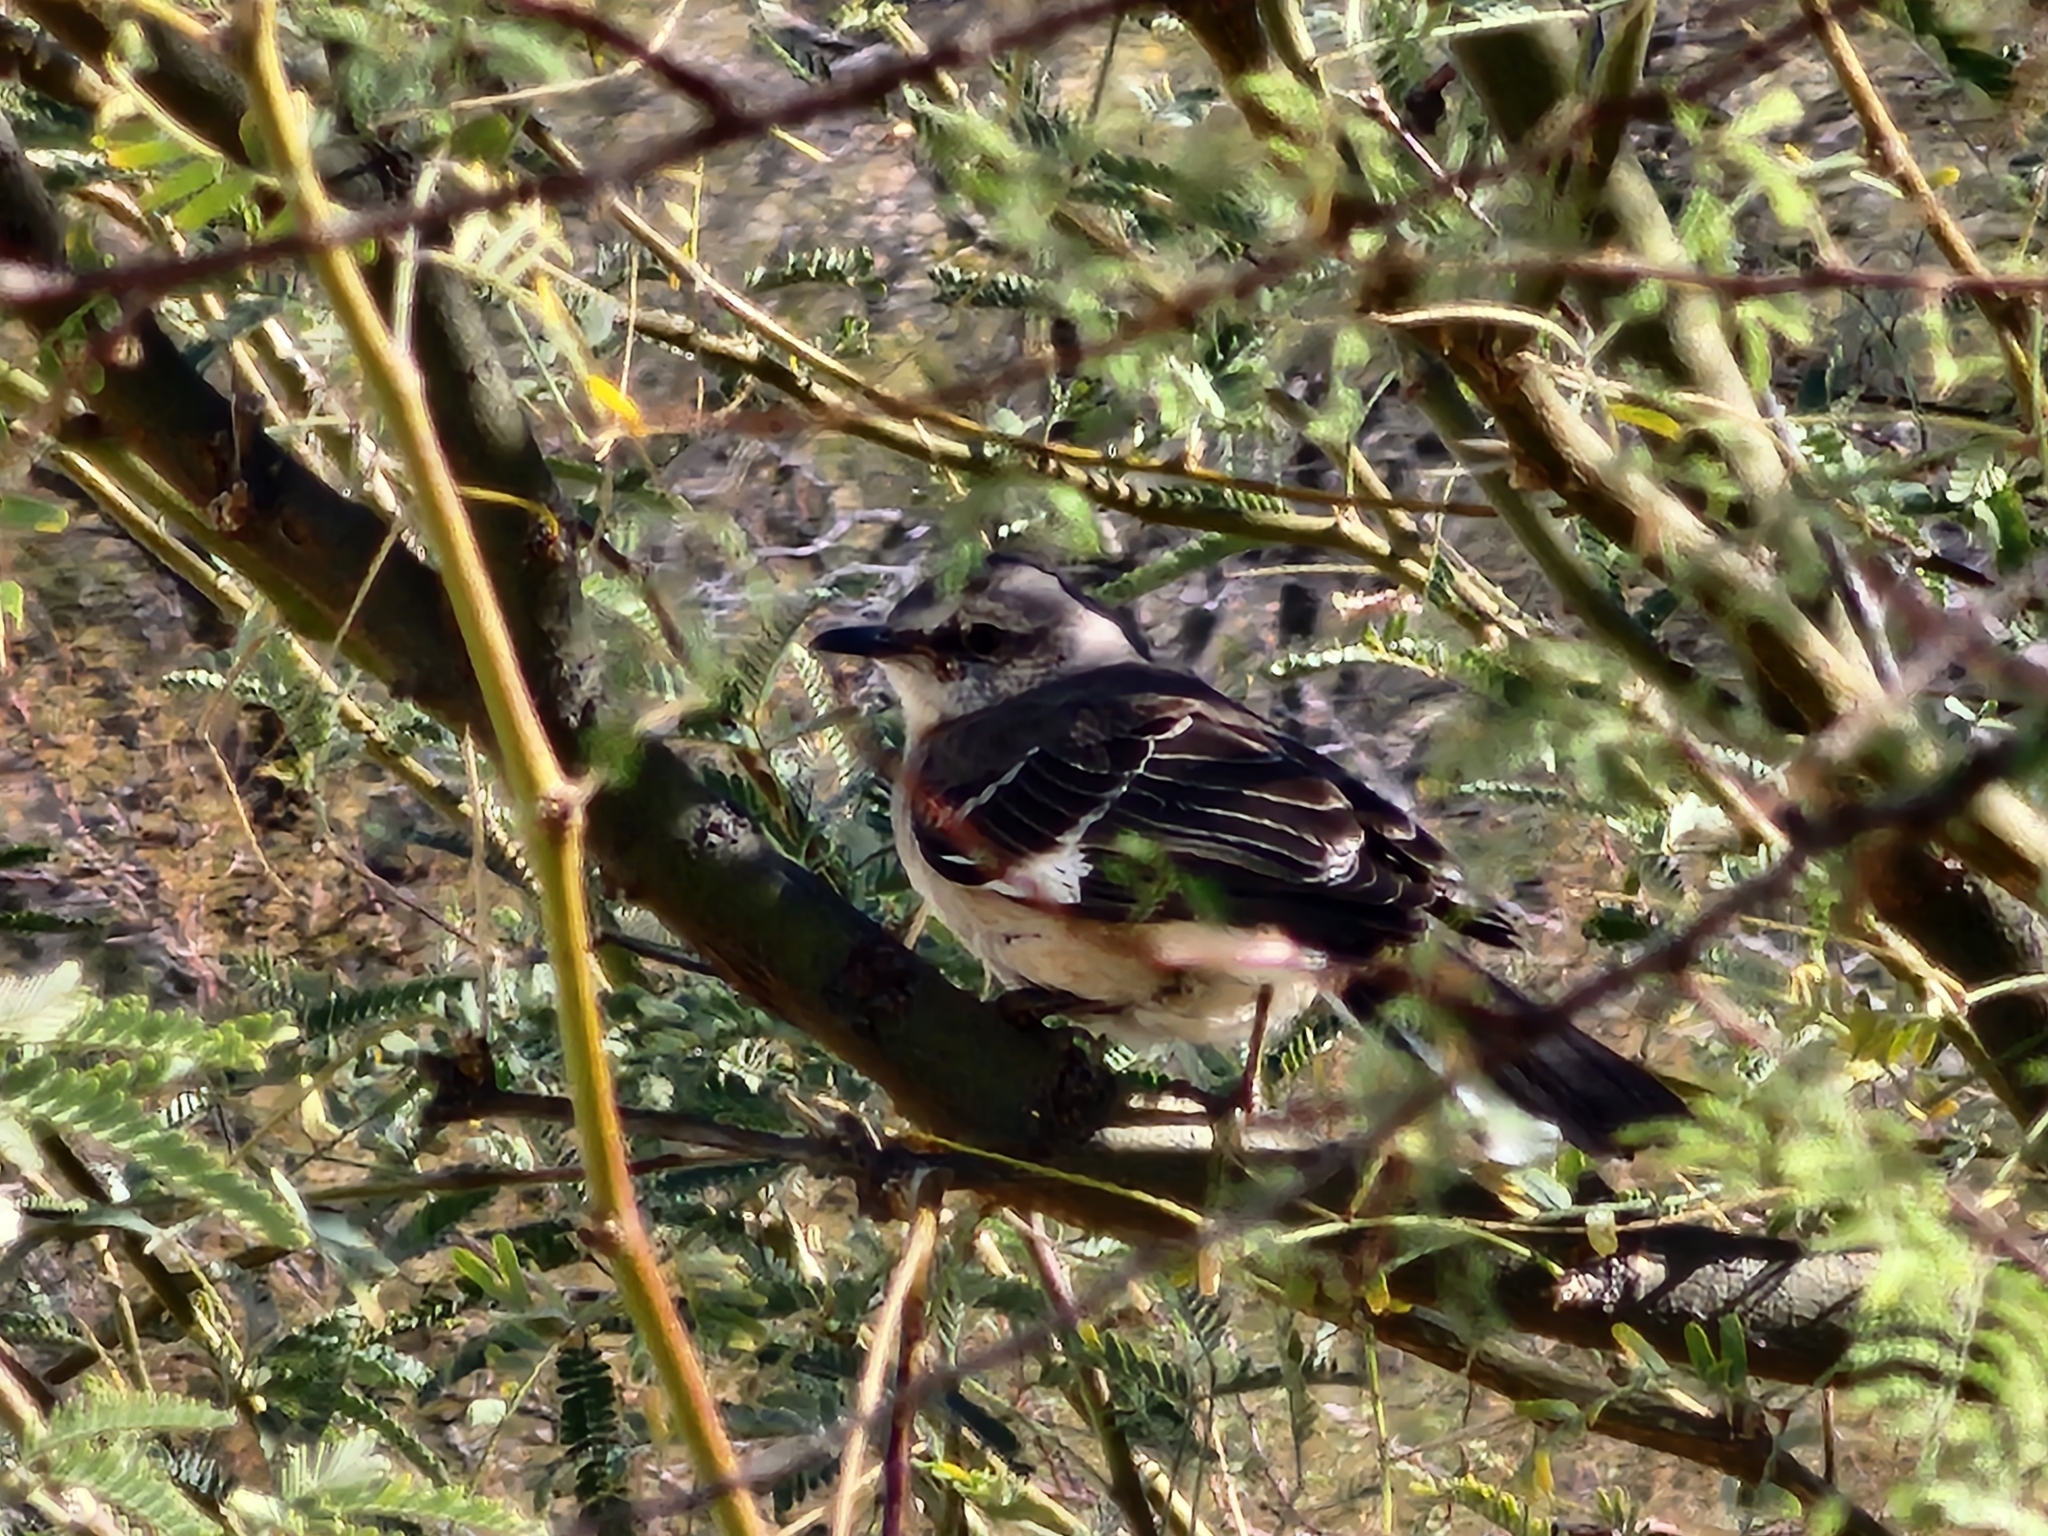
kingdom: Animalia
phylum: Chordata
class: Aves
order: Passeriformes
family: Mimidae
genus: Mimus
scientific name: Mimus polyglottos
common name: Northern mockingbird
